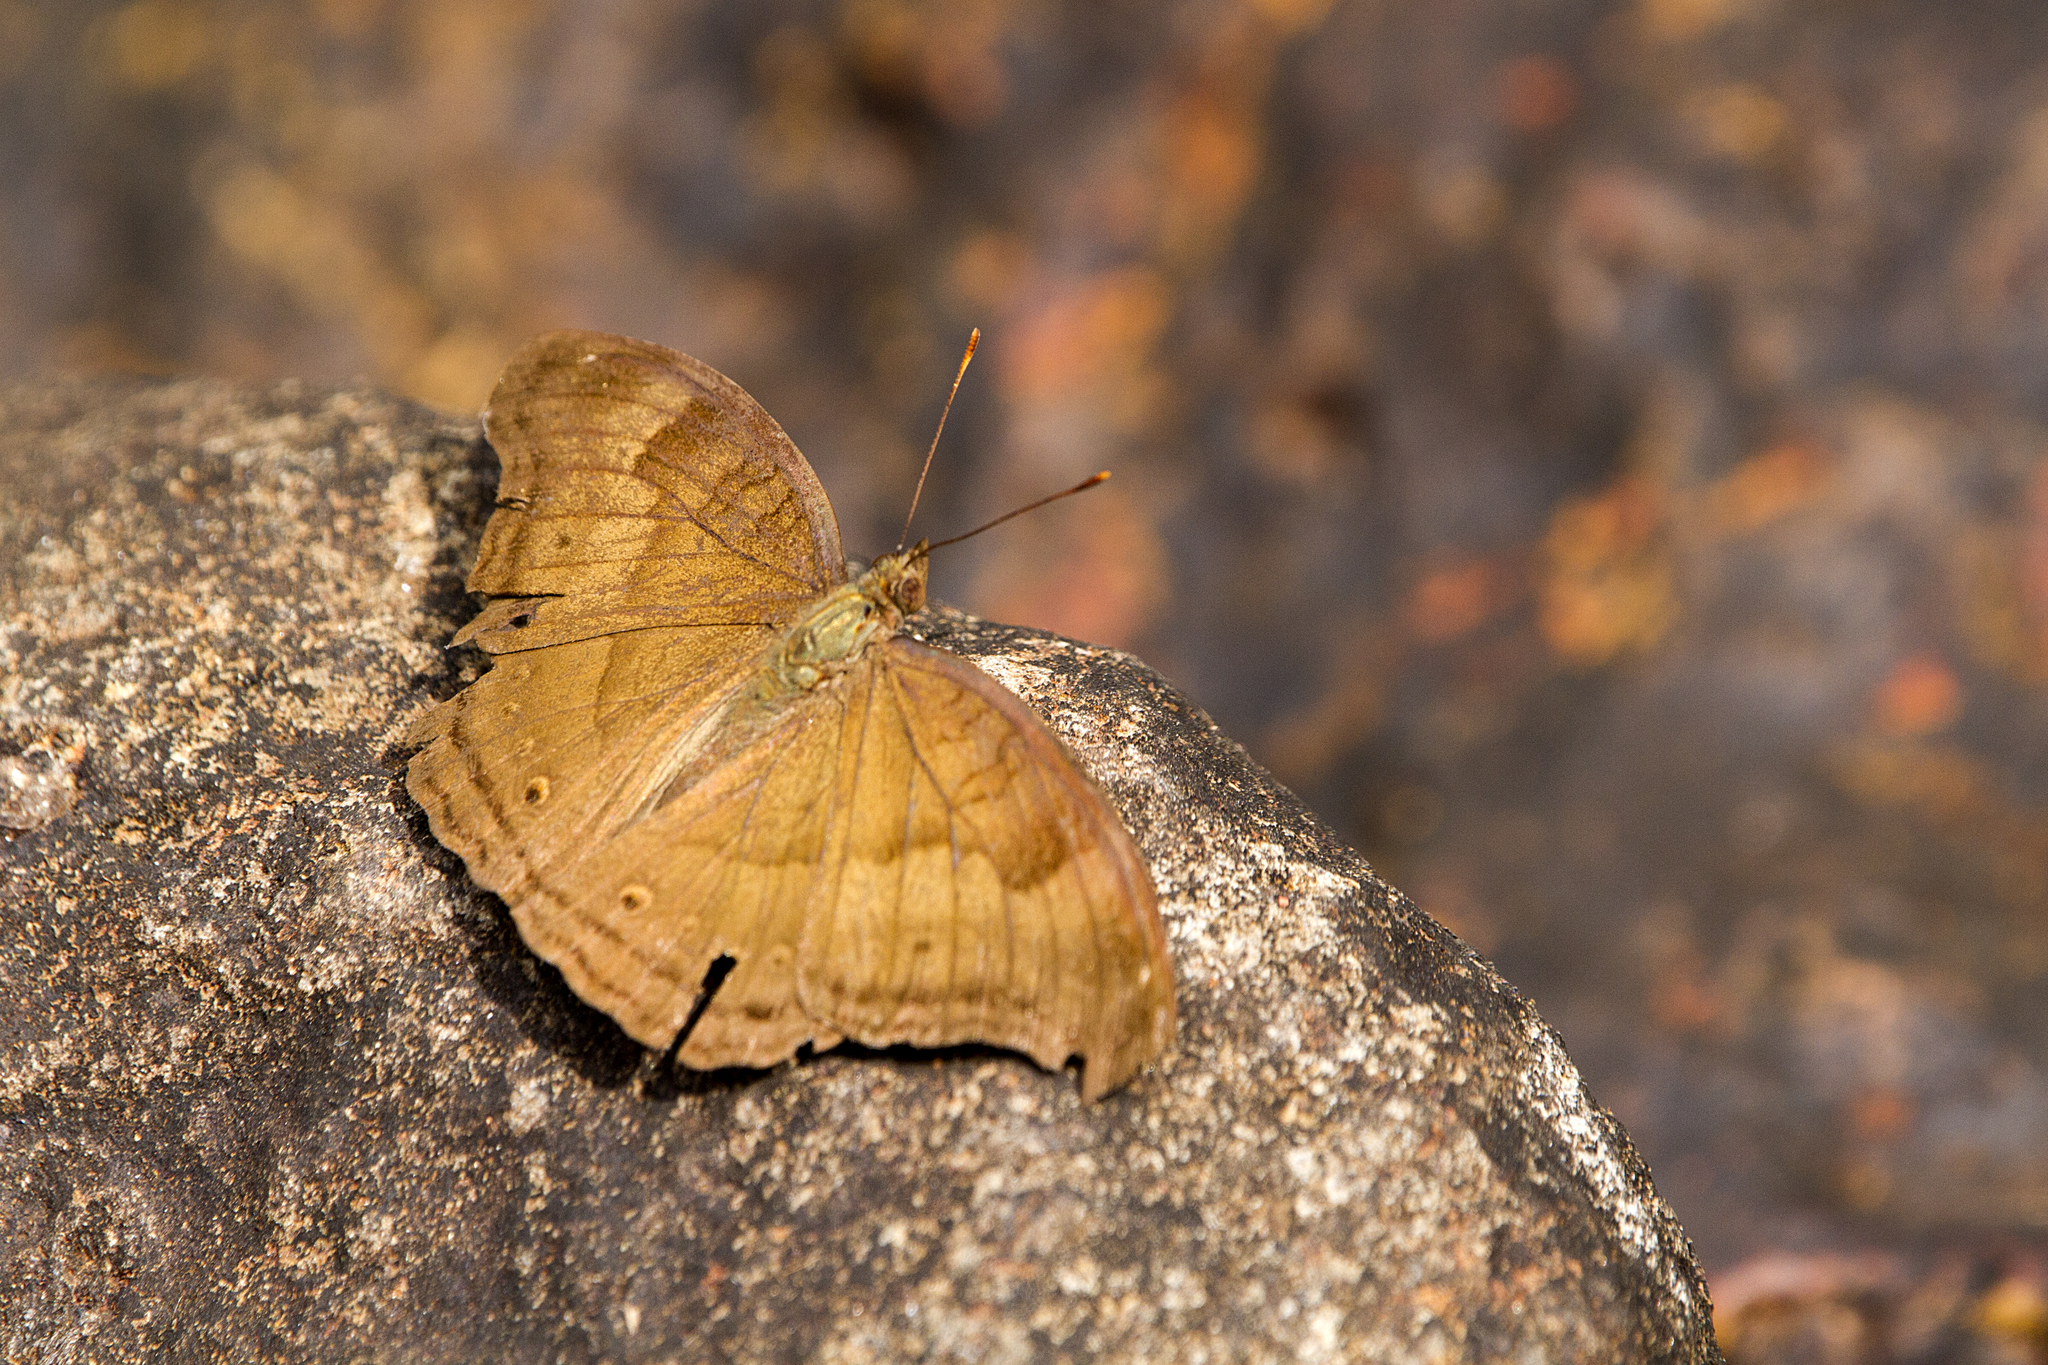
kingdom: Animalia
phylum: Arthropoda
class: Insecta
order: Lepidoptera
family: Nymphalidae
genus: Junonia
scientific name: Junonia iphita
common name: Chocolate pansy
